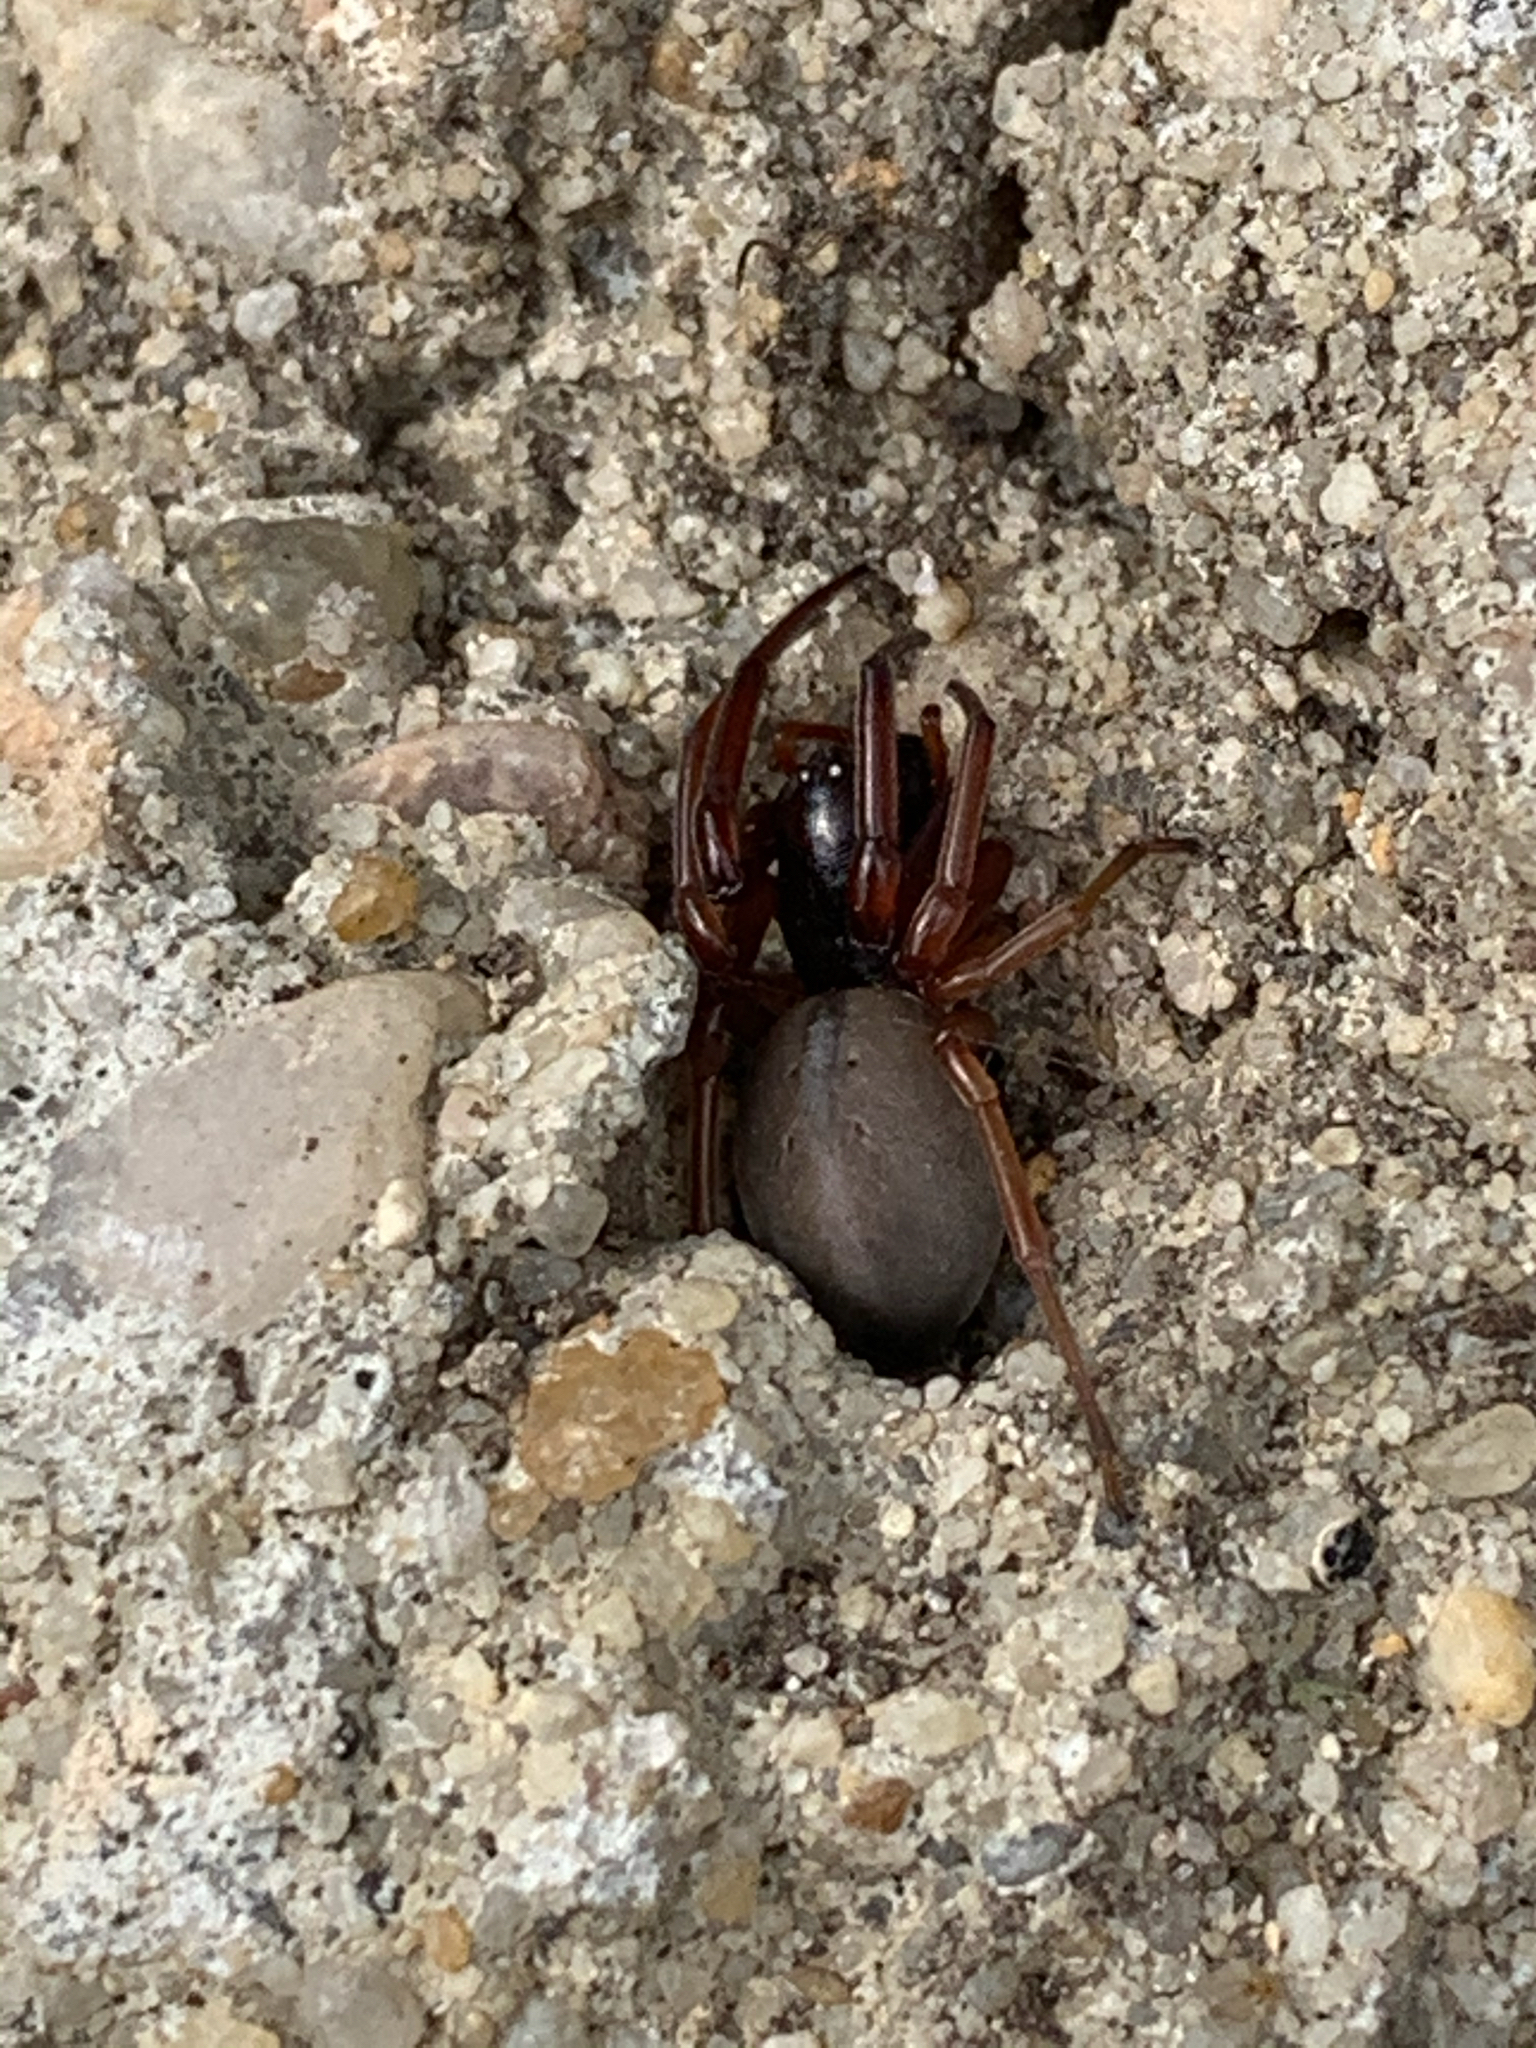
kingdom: Animalia
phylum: Arthropoda
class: Arachnida
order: Araneae
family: Trachelidae
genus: Trachelas
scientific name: Trachelas tranquillus
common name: Broad-faced sac spider
